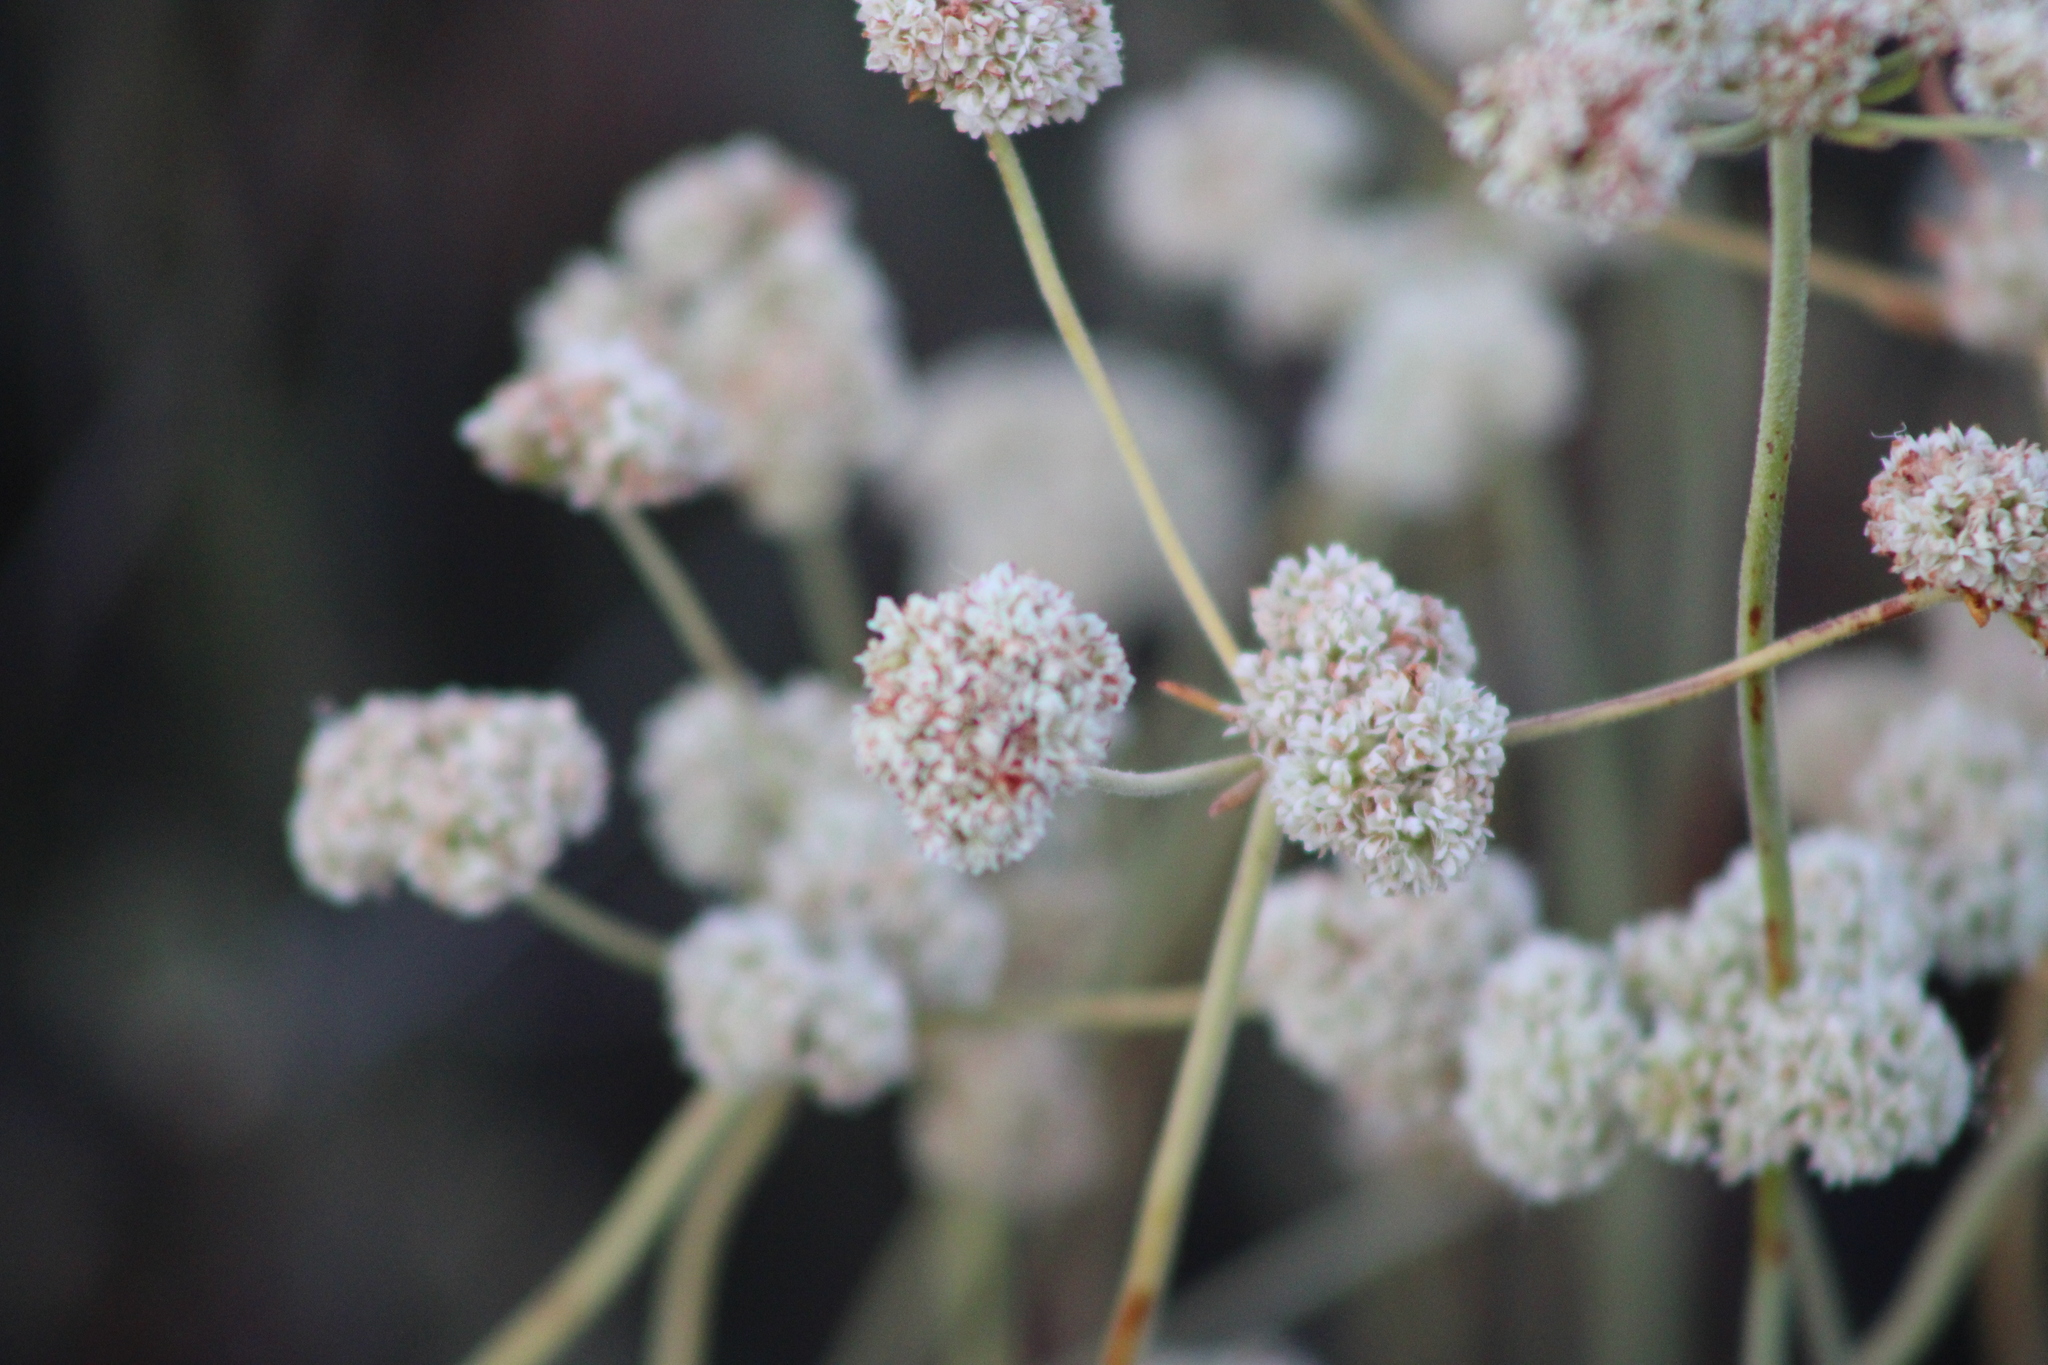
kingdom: Plantae
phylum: Tracheophyta
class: Magnoliopsida
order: Caryophyllales
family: Polygonaceae
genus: Eriogonum
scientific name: Eriogonum fasciculatum
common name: California wild buckwheat
